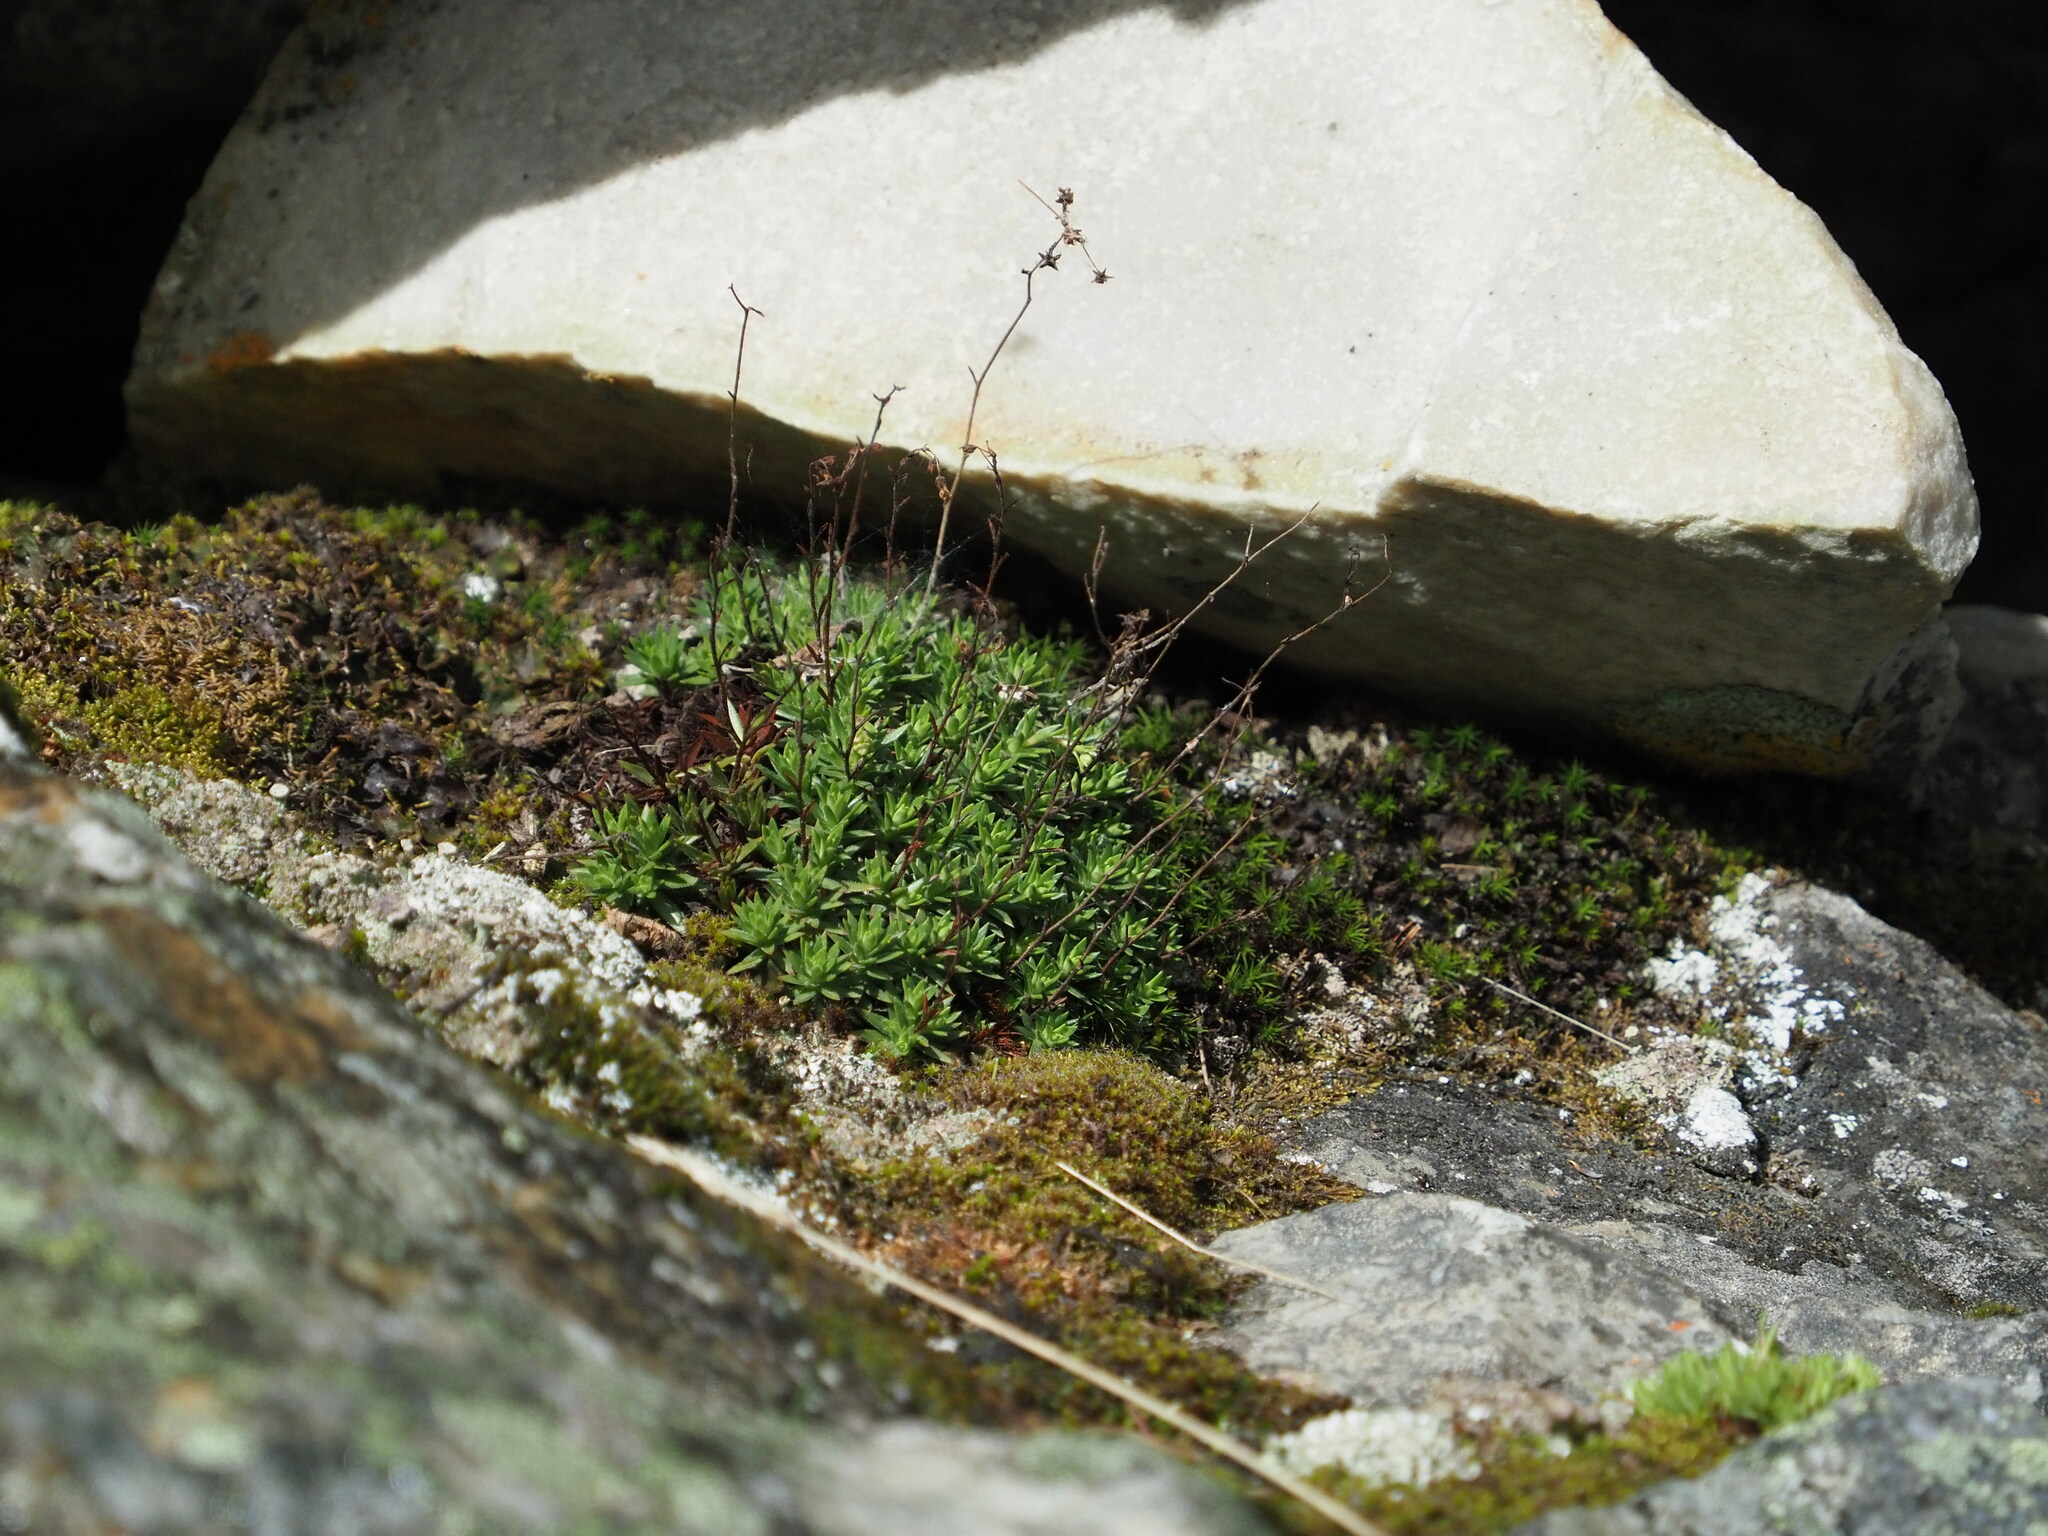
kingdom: Plantae
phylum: Tracheophyta
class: Magnoliopsida
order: Saxifragales
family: Saxifragaceae
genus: Saxifraga
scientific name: Saxifraga bronchialis
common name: Matted saxifrage
